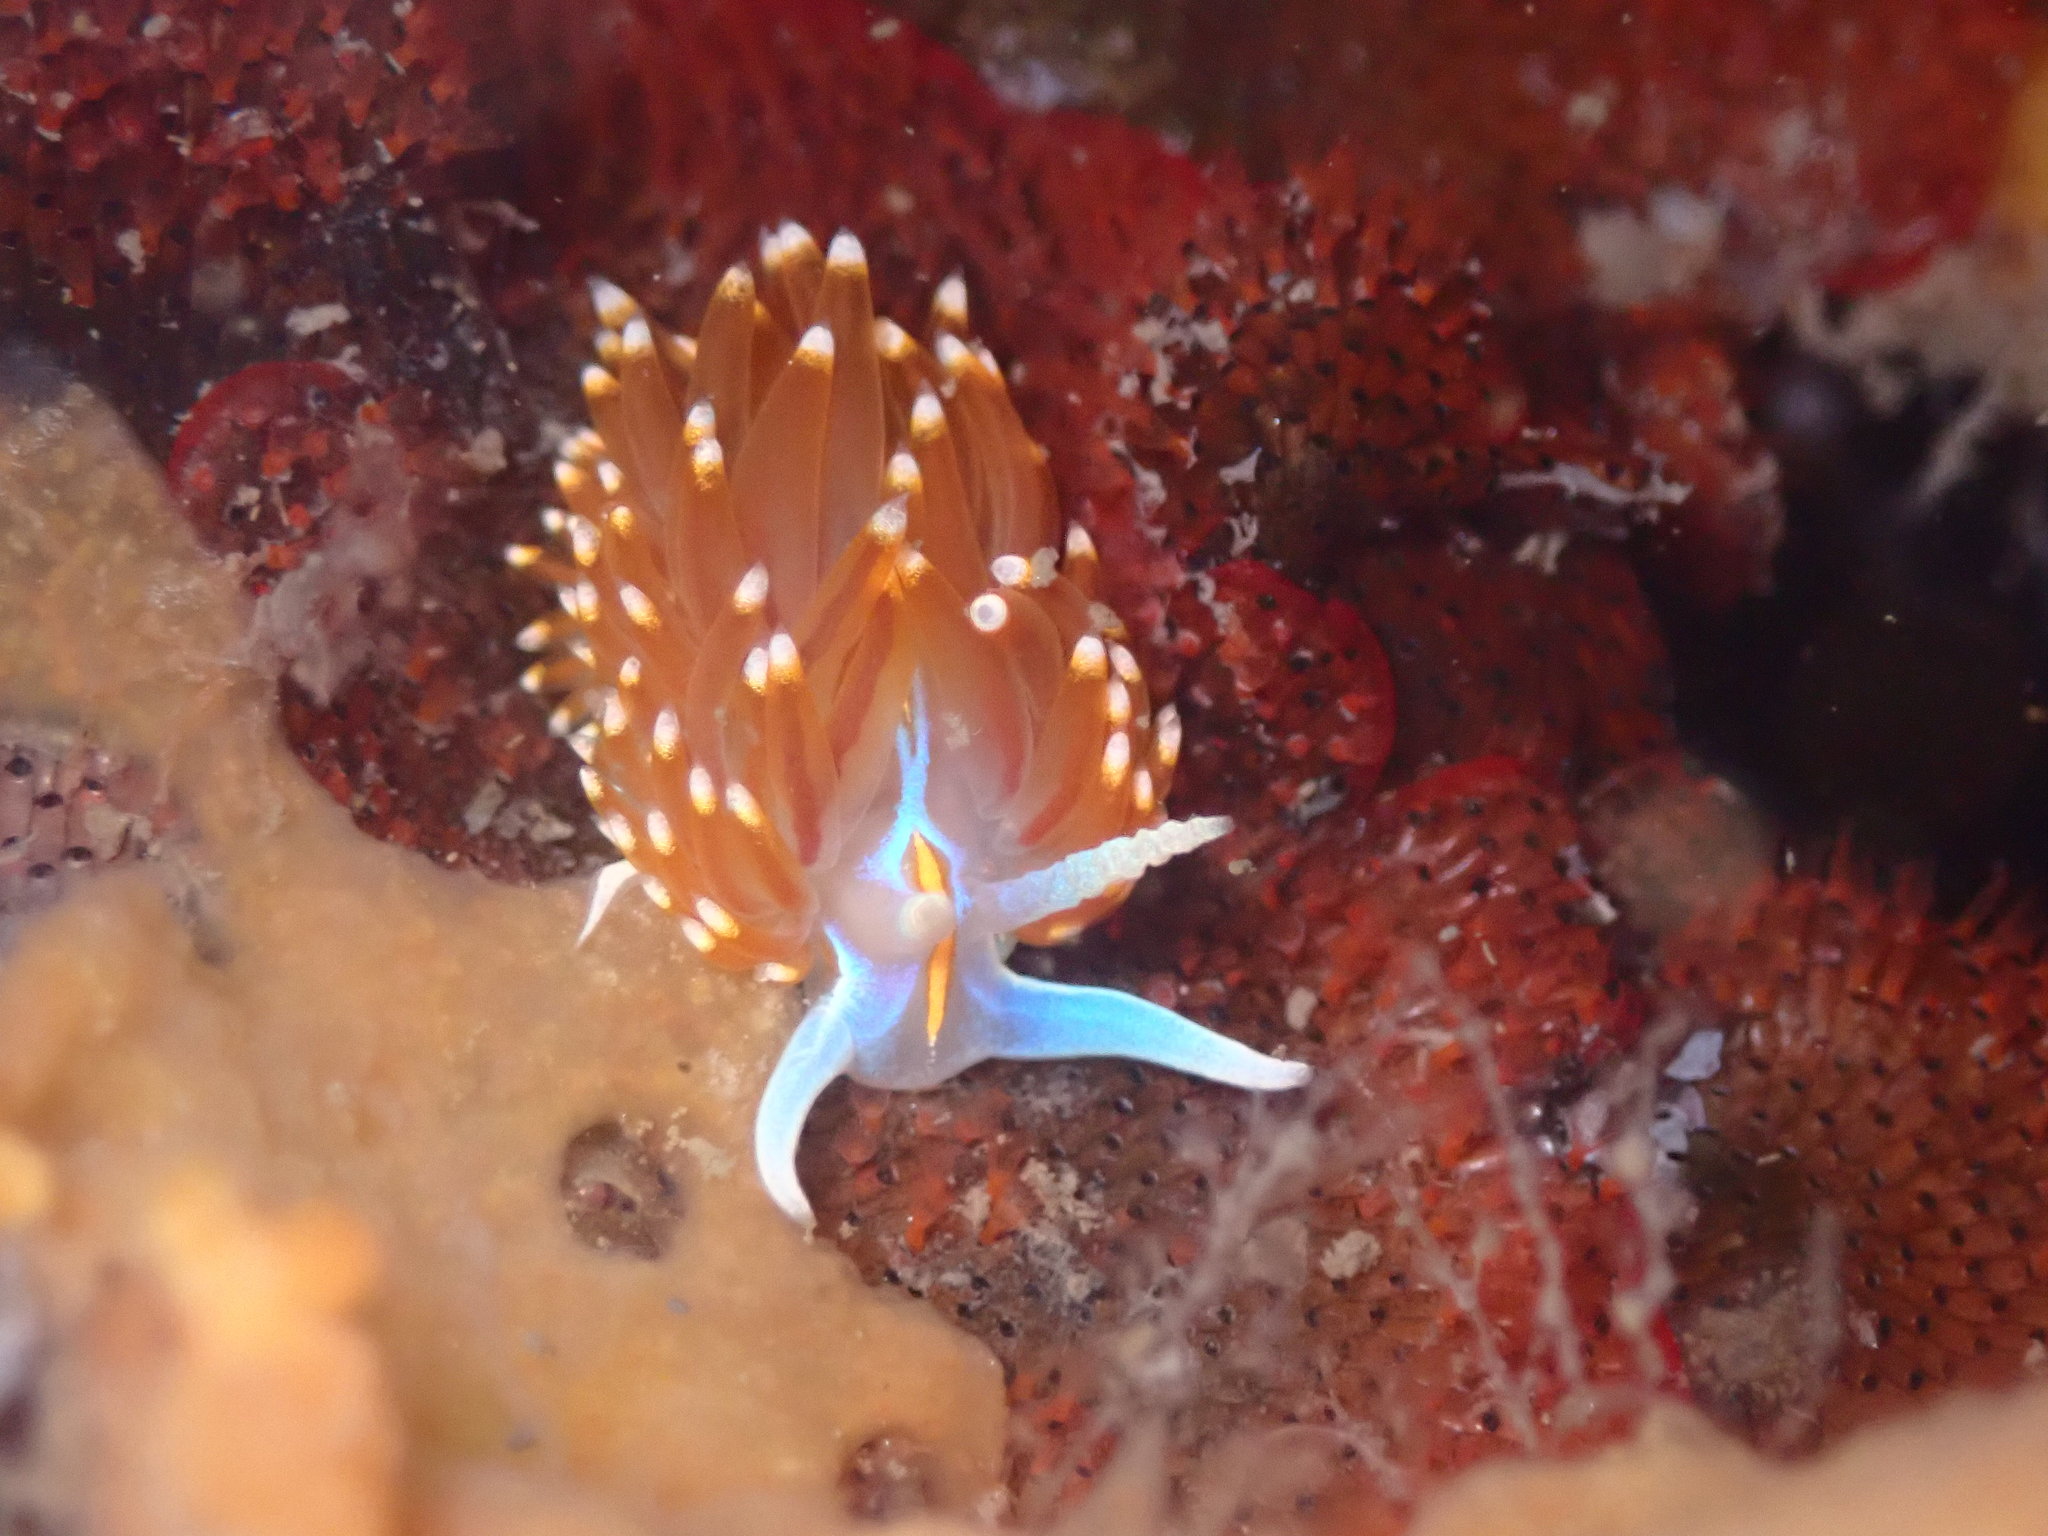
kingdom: Animalia
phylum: Mollusca
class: Gastropoda
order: Nudibranchia
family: Myrrhinidae
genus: Hermissenda
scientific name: Hermissenda opalescens
